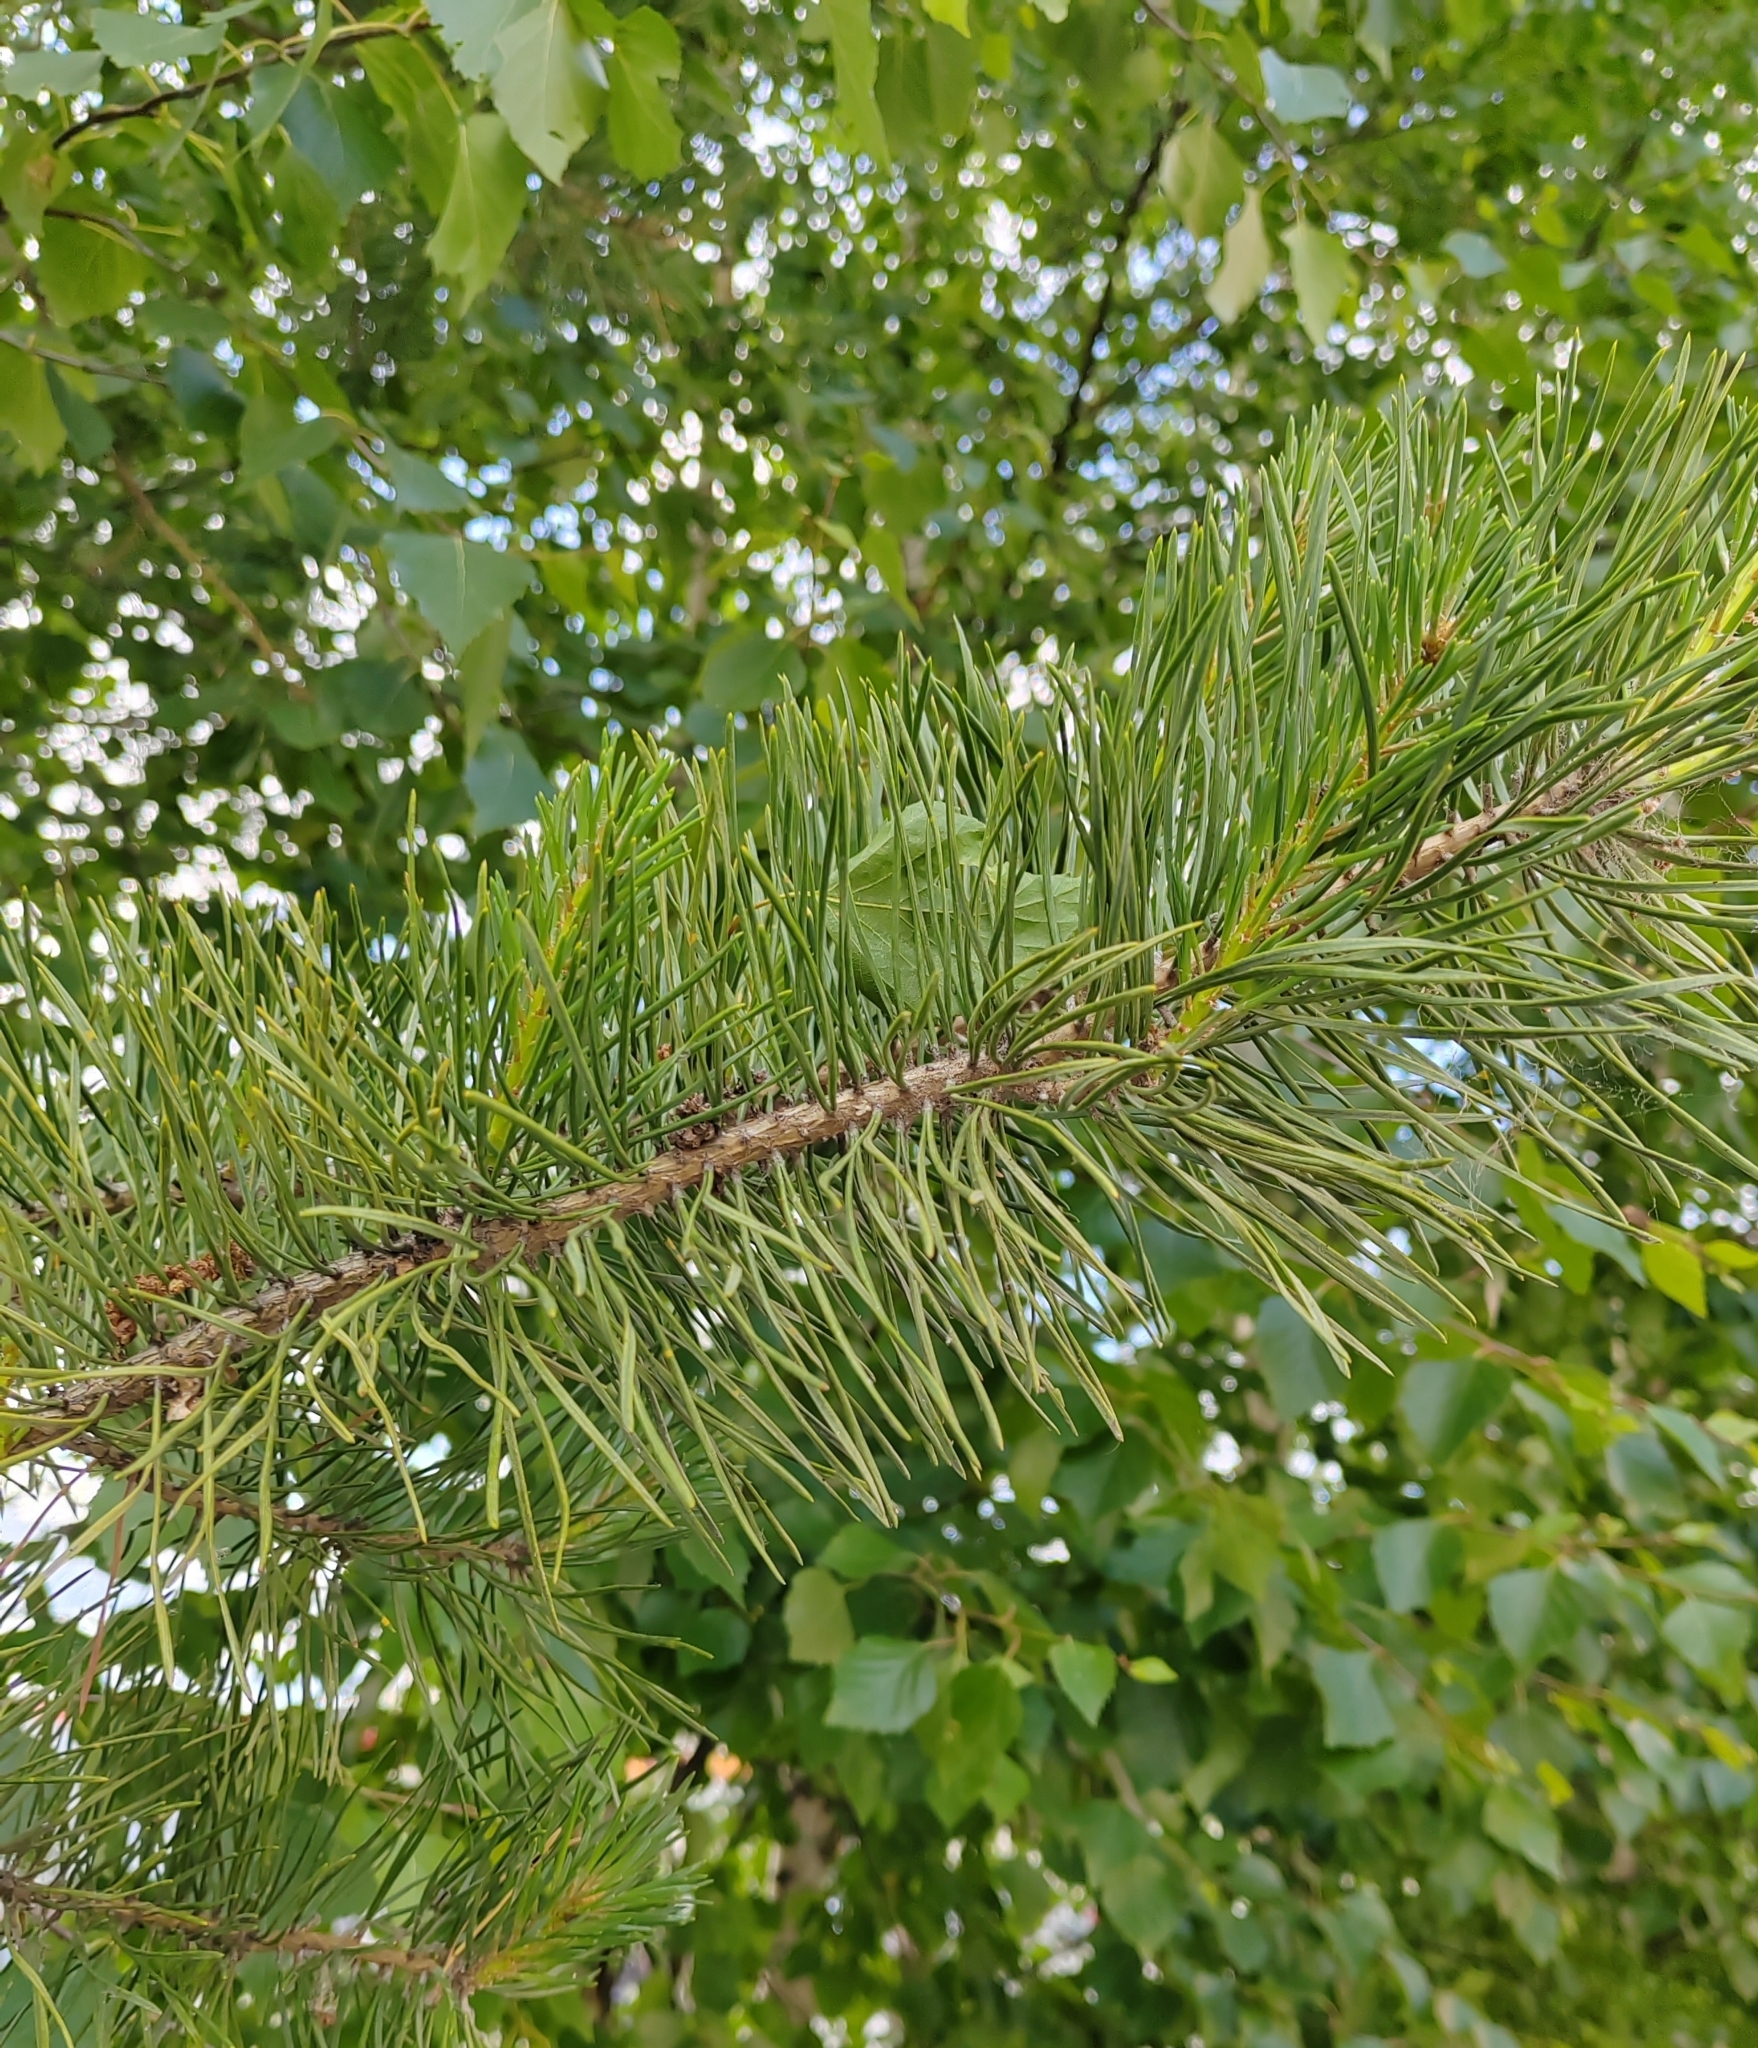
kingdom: Plantae
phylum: Tracheophyta
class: Pinopsida
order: Pinales
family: Pinaceae
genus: Pinus
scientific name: Pinus sylvestris
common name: Scots pine
